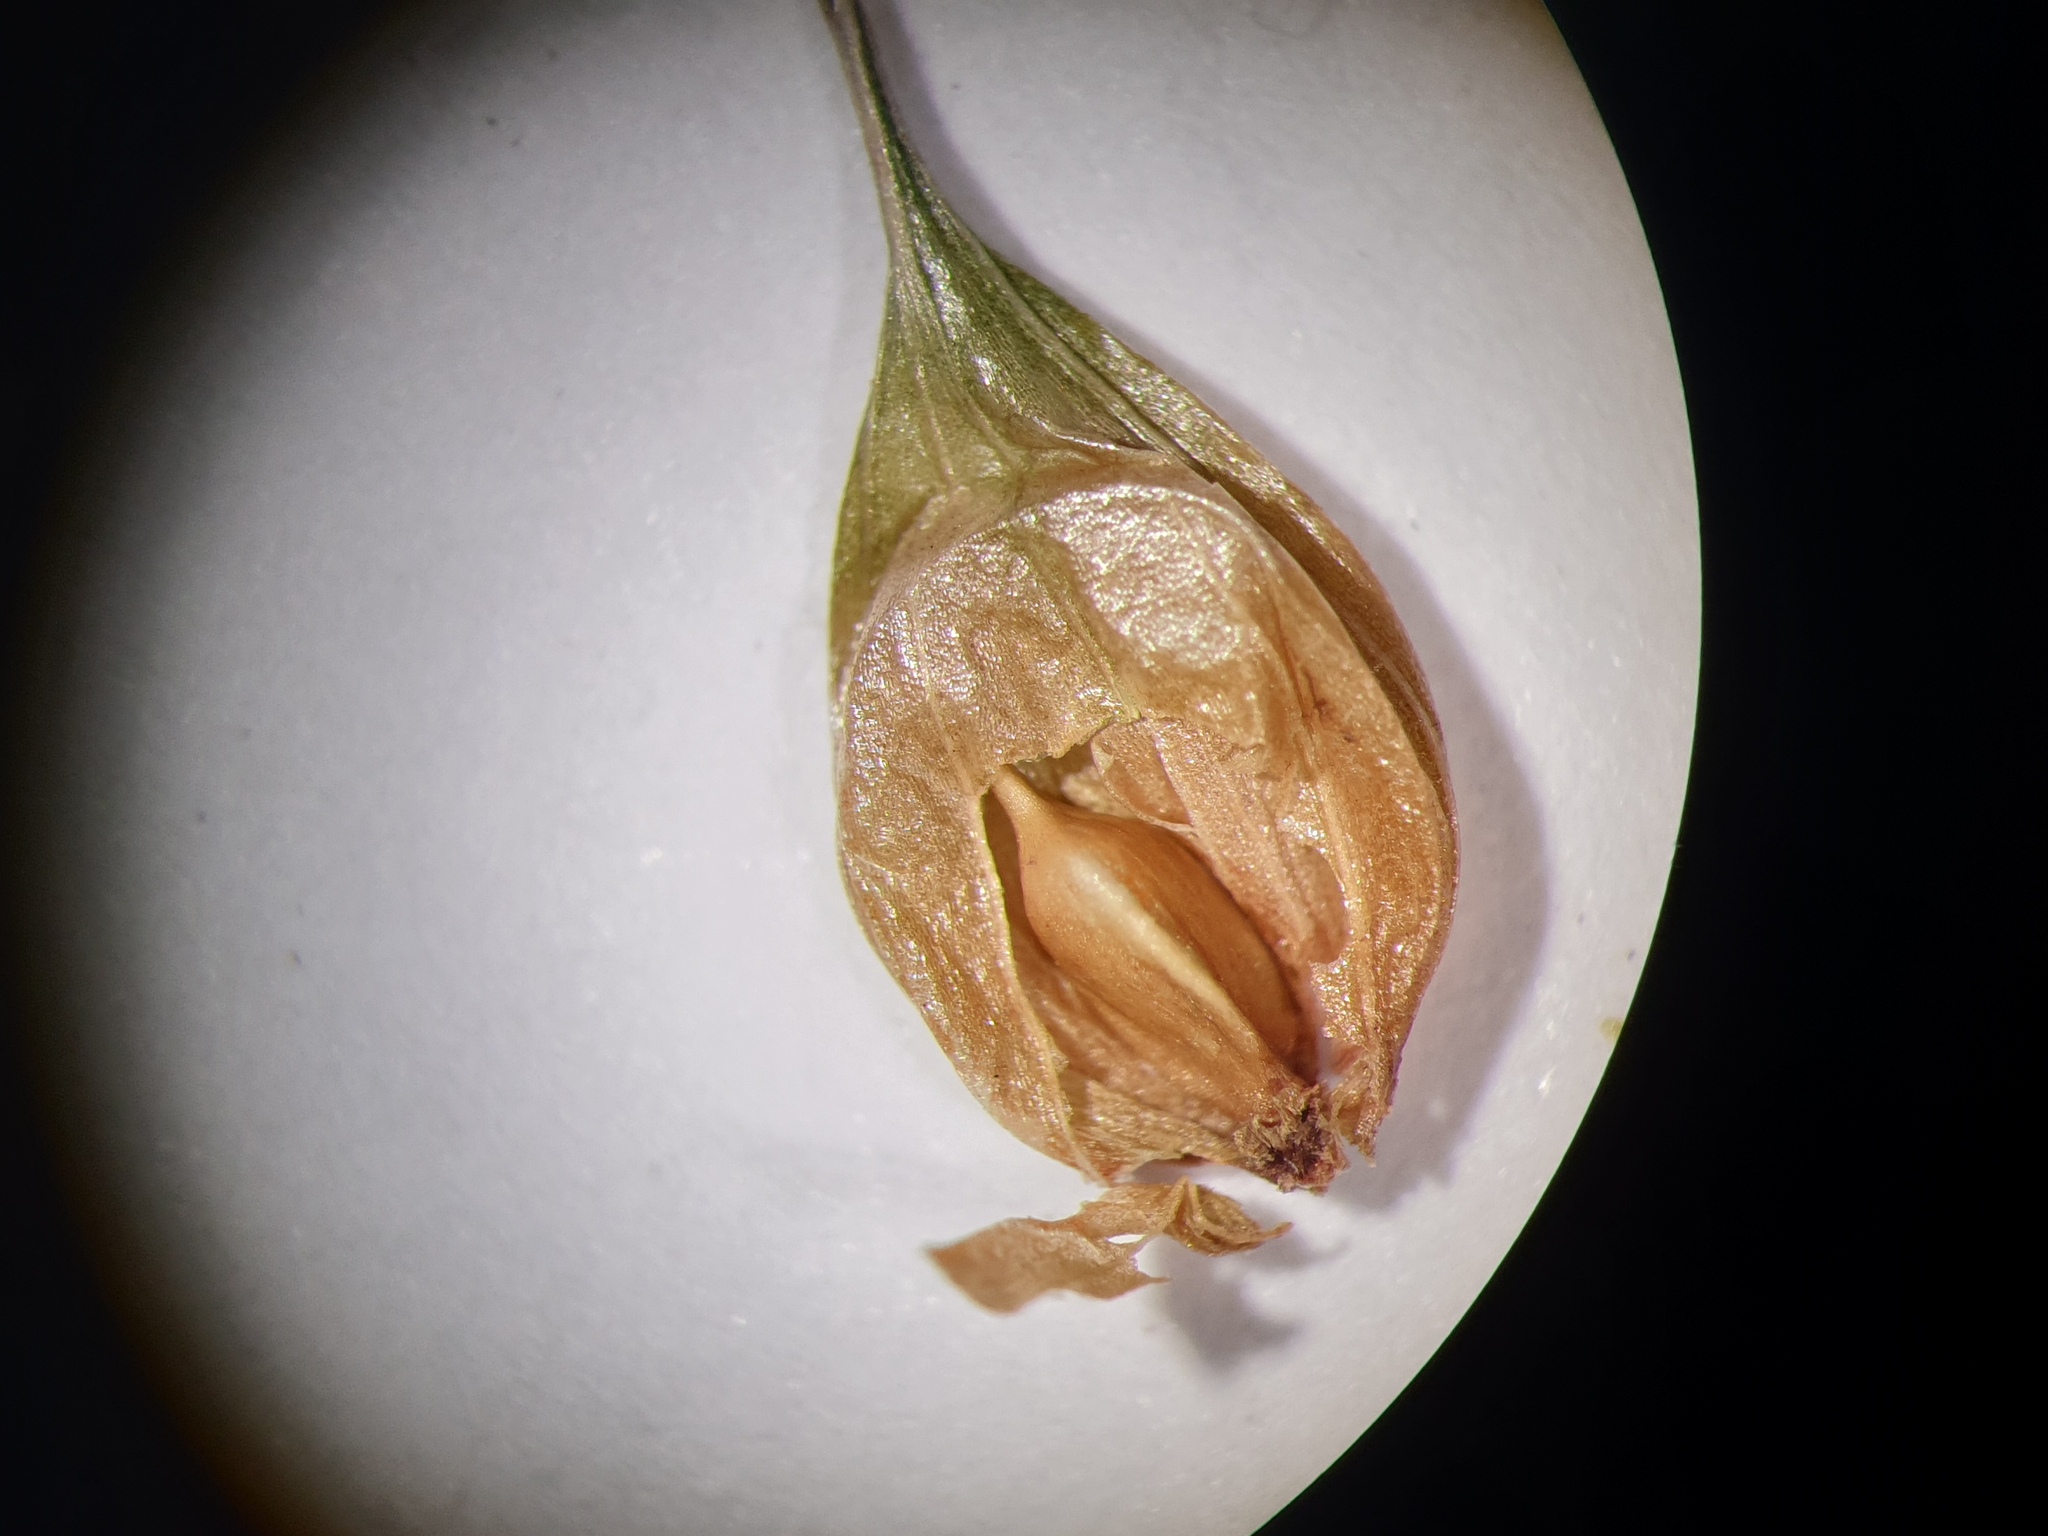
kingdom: Plantae
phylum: Tracheophyta
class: Liliopsida
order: Poales
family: Cyperaceae
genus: Carex
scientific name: Carex vesicaria
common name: Bladder-sedge
